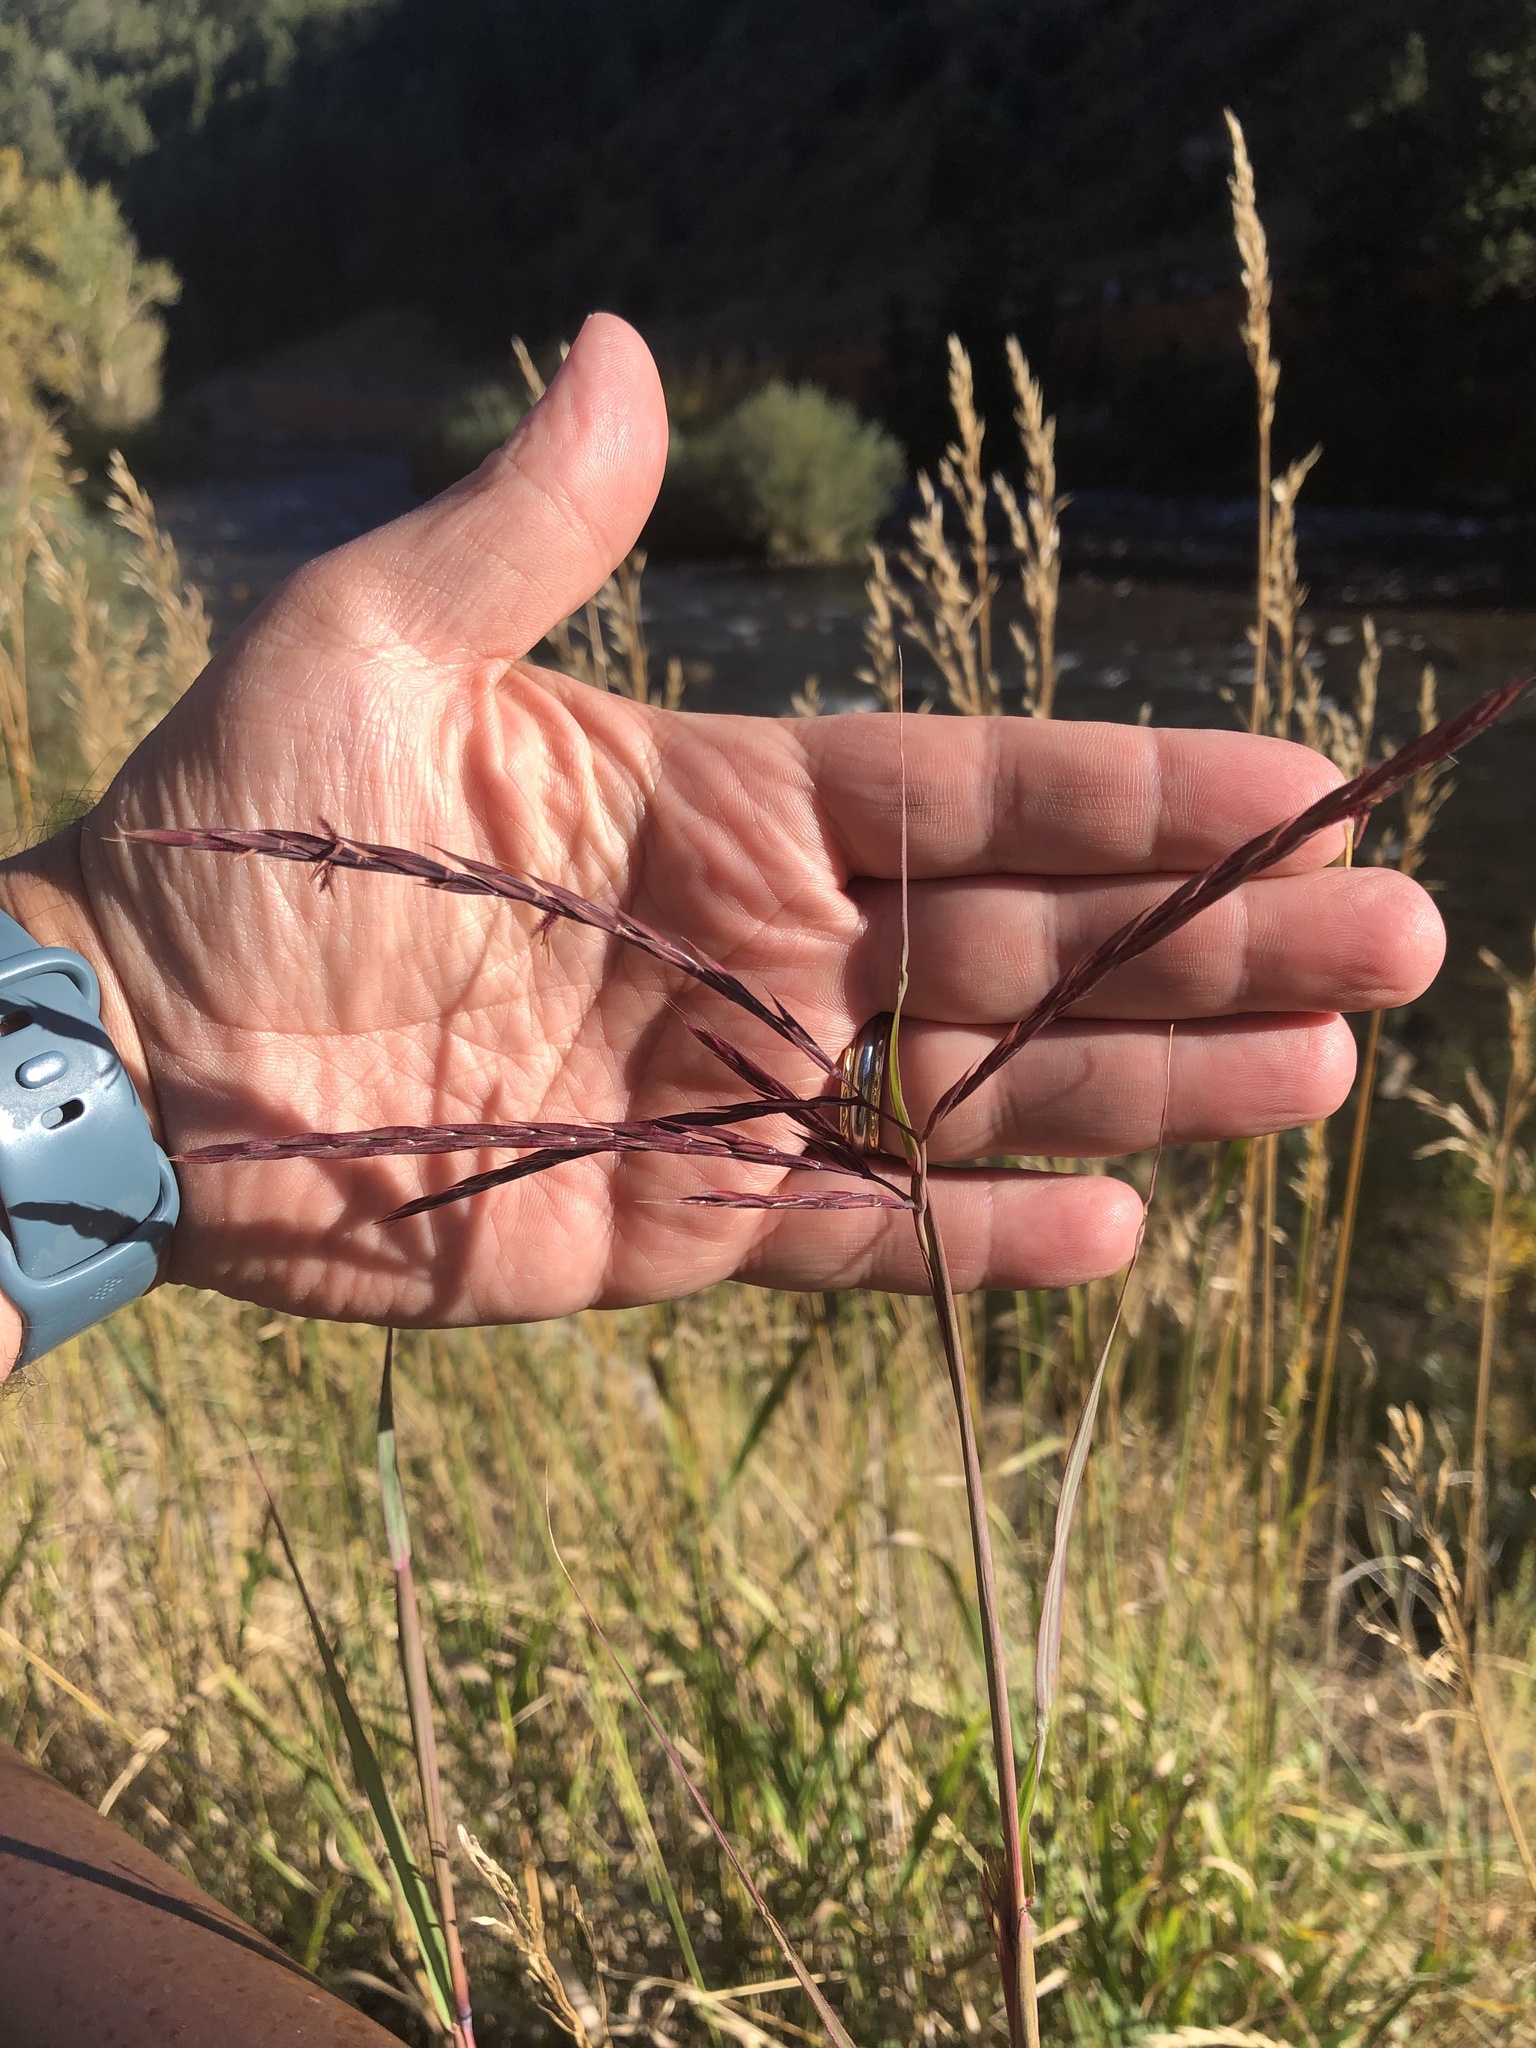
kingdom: Plantae
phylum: Tracheophyta
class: Liliopsida
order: Poales
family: Poaceae
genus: Andropogon
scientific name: Andropogon gerardi
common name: Big bluestem
